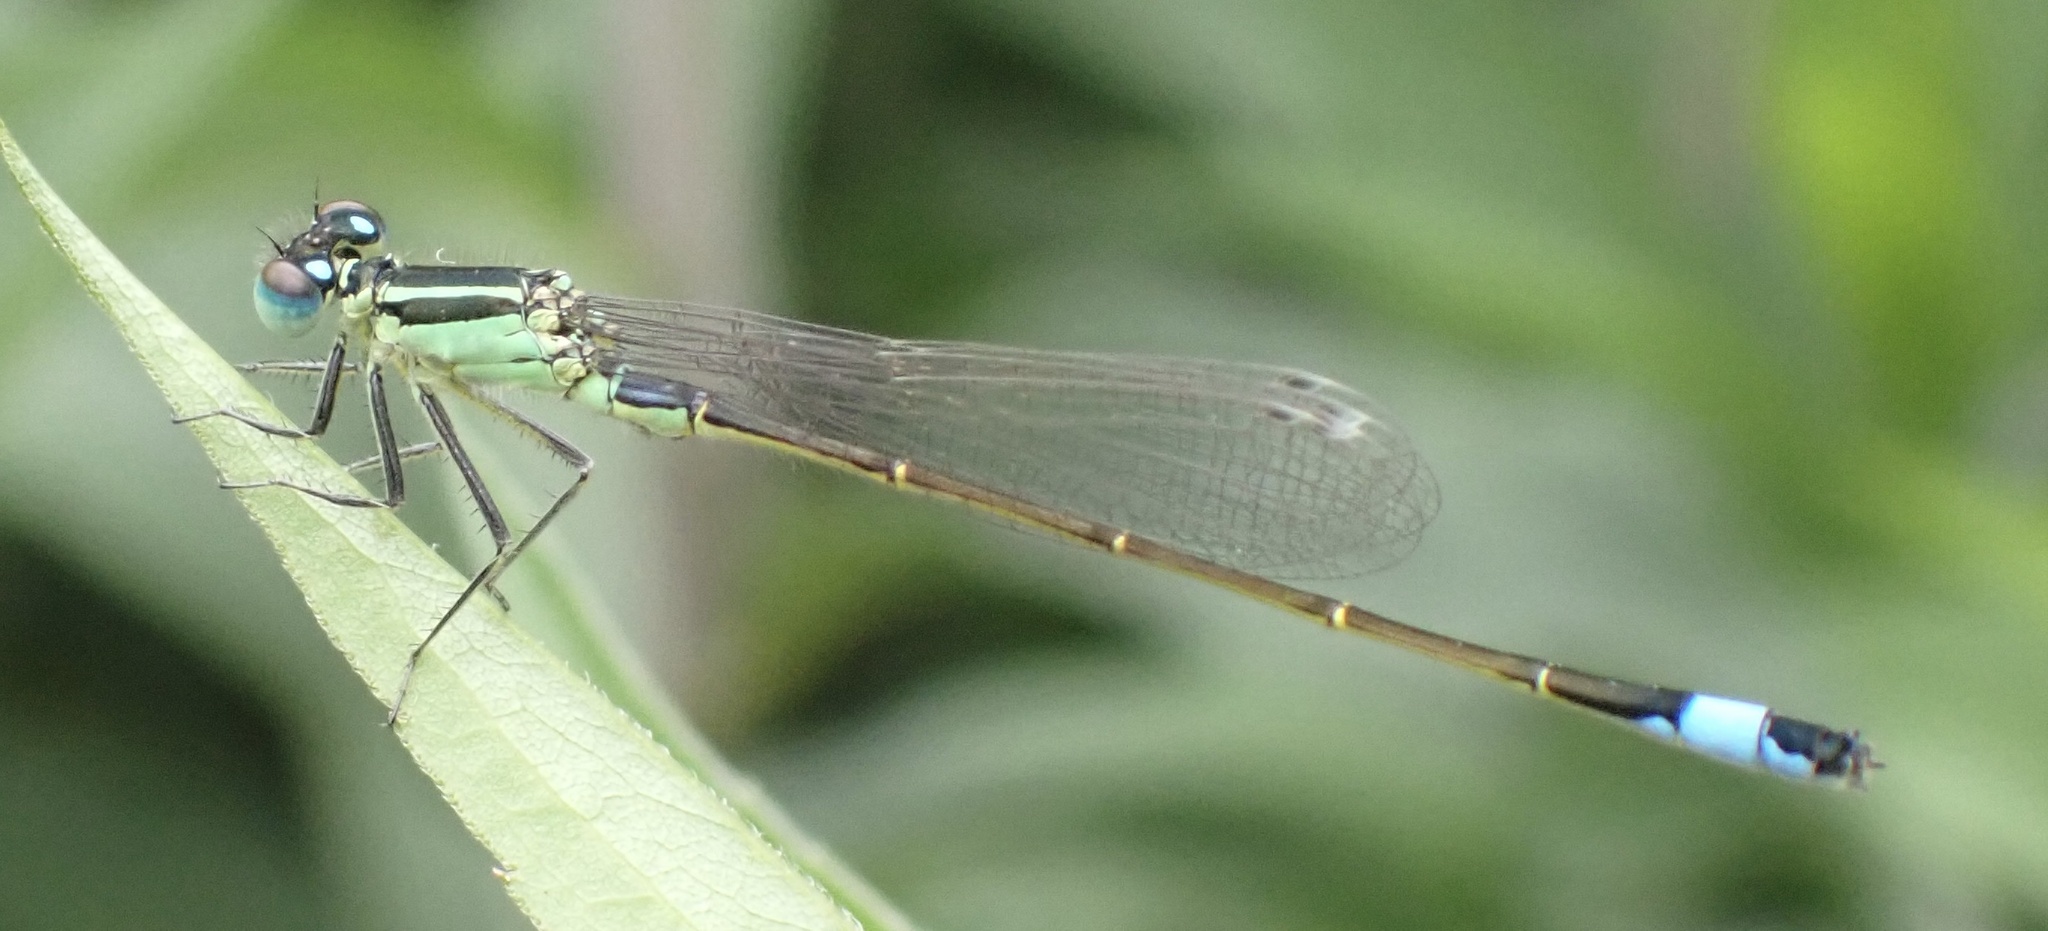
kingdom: Animalia
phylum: Arthropoda
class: Insecta
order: Odonata
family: Coenagrionidae
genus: Ischnura
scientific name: Ischnura elegans
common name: Blue-tailed damselfly
